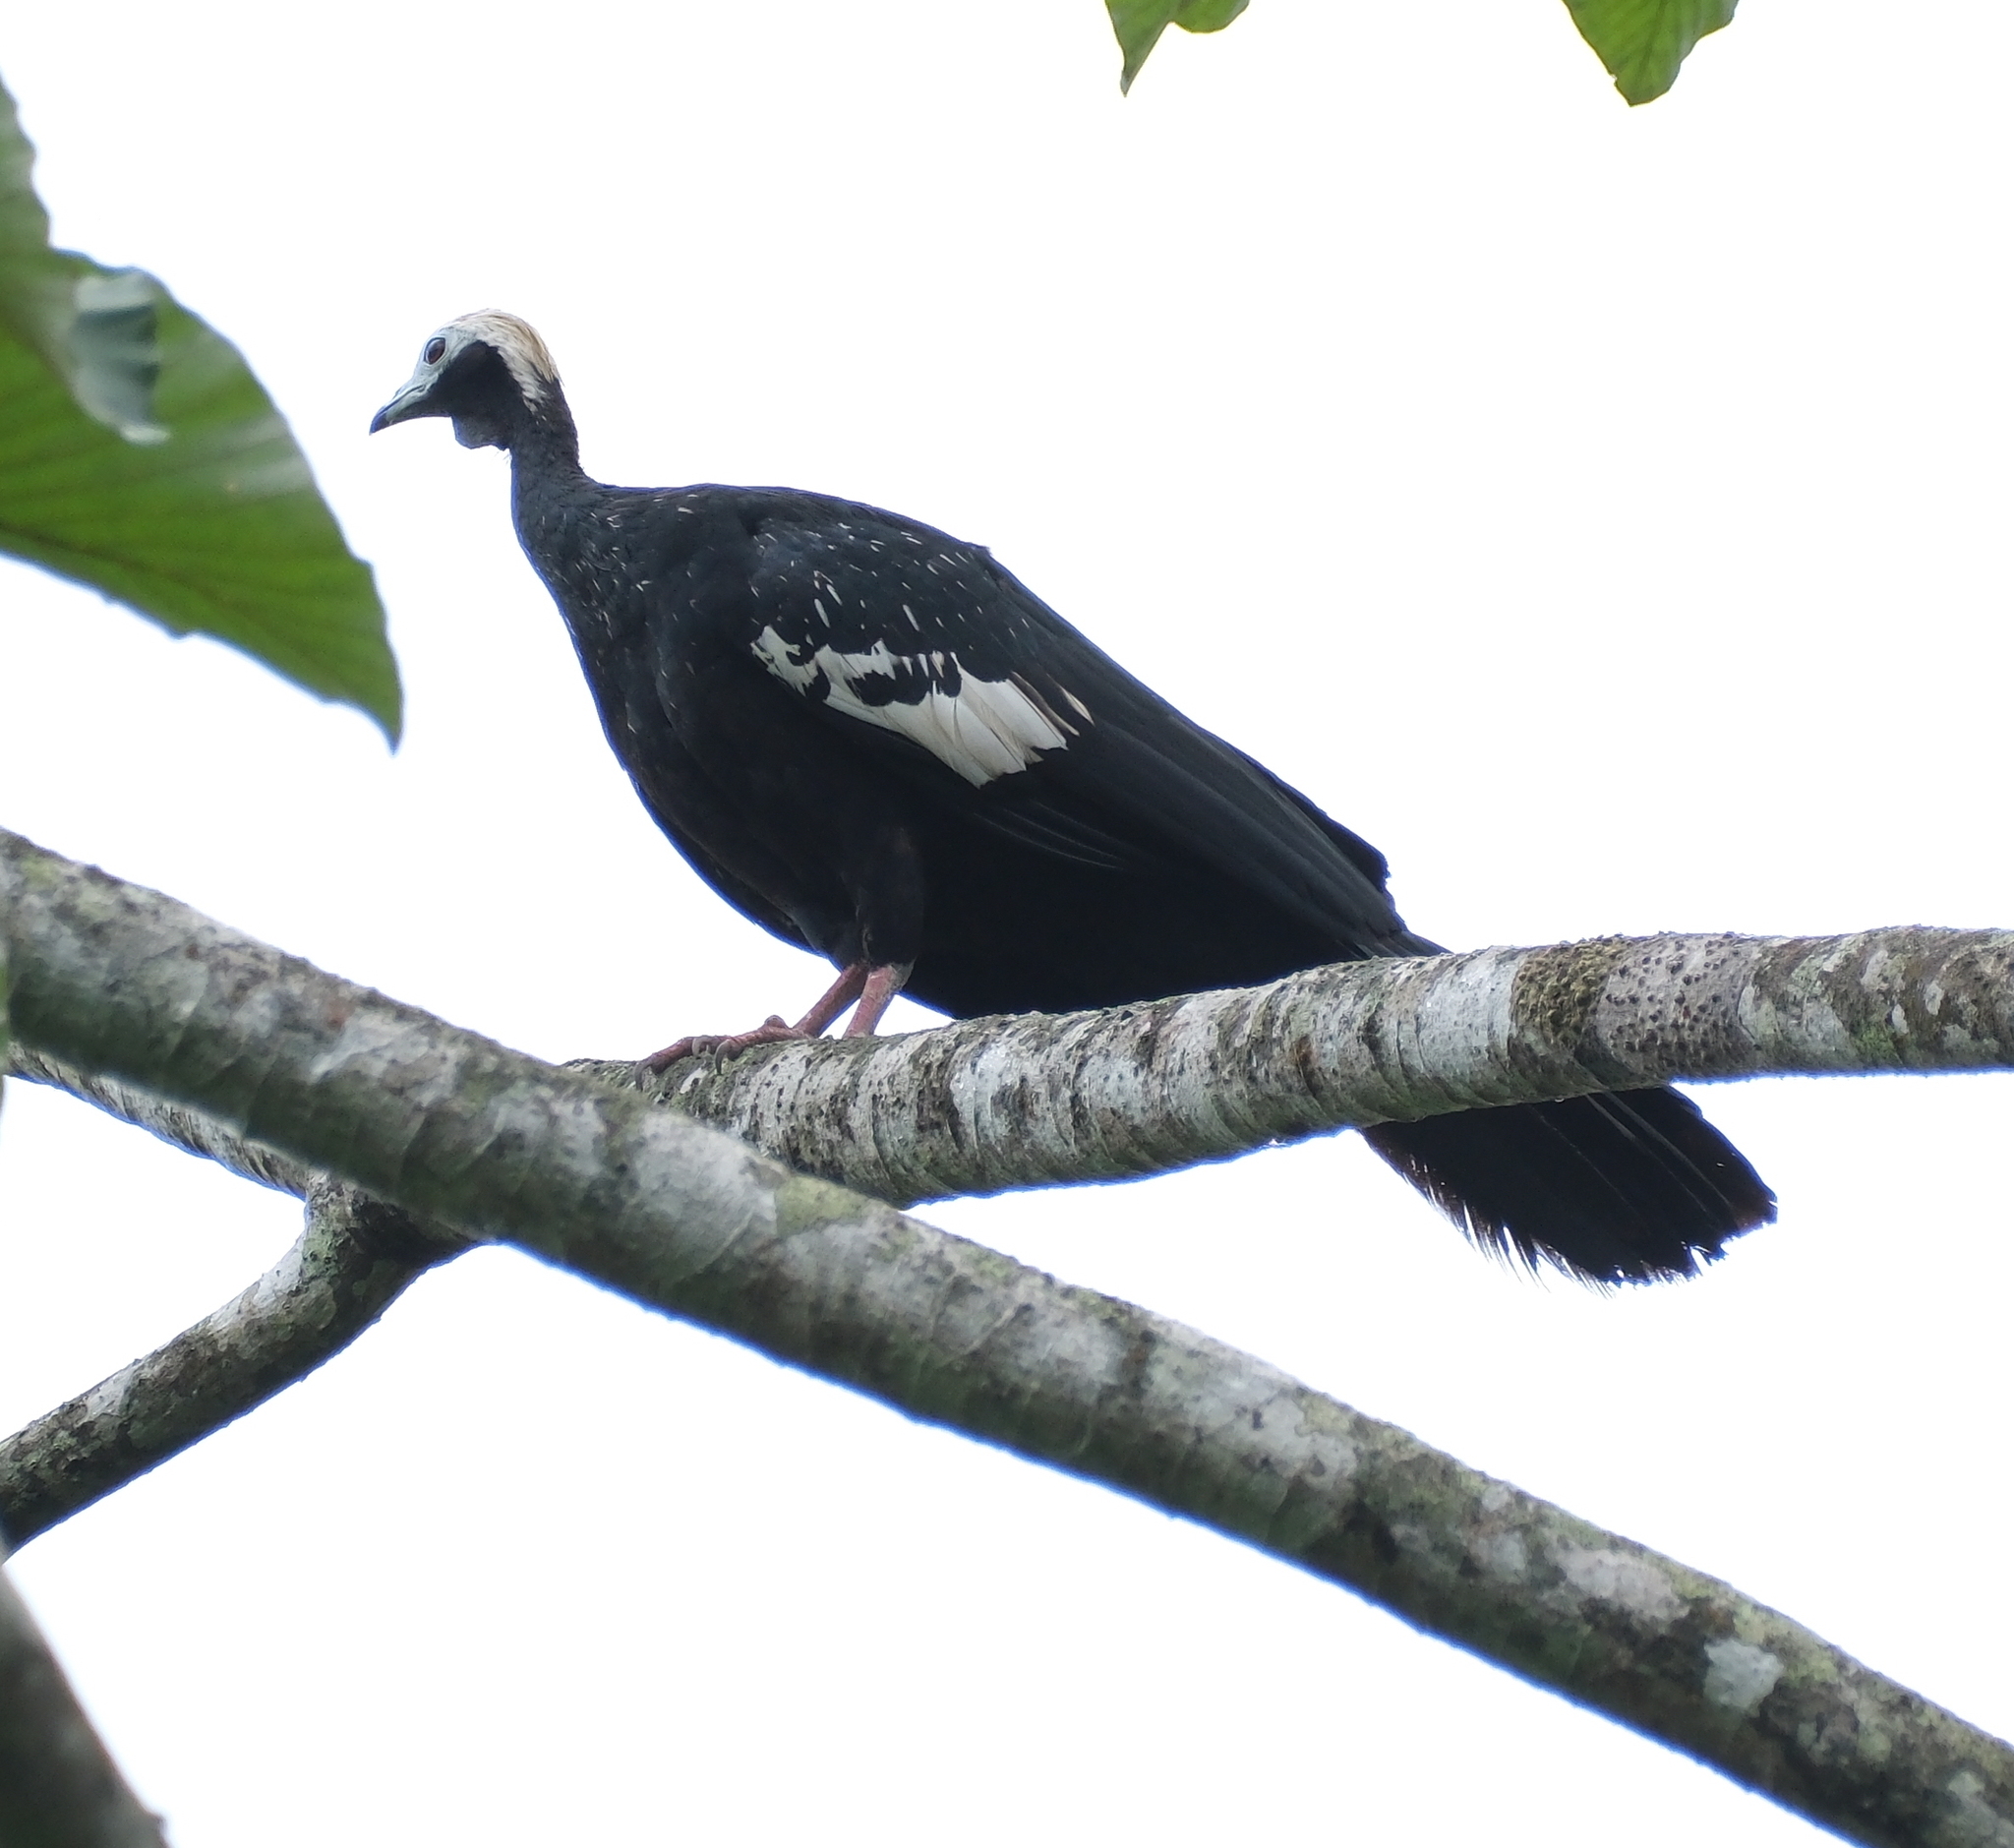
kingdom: Animalia
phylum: Chordata
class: Aves
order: Galliformes
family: Cracidae
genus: Pipile
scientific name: Pipile cumanensis
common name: Blue-throated piping-guan
